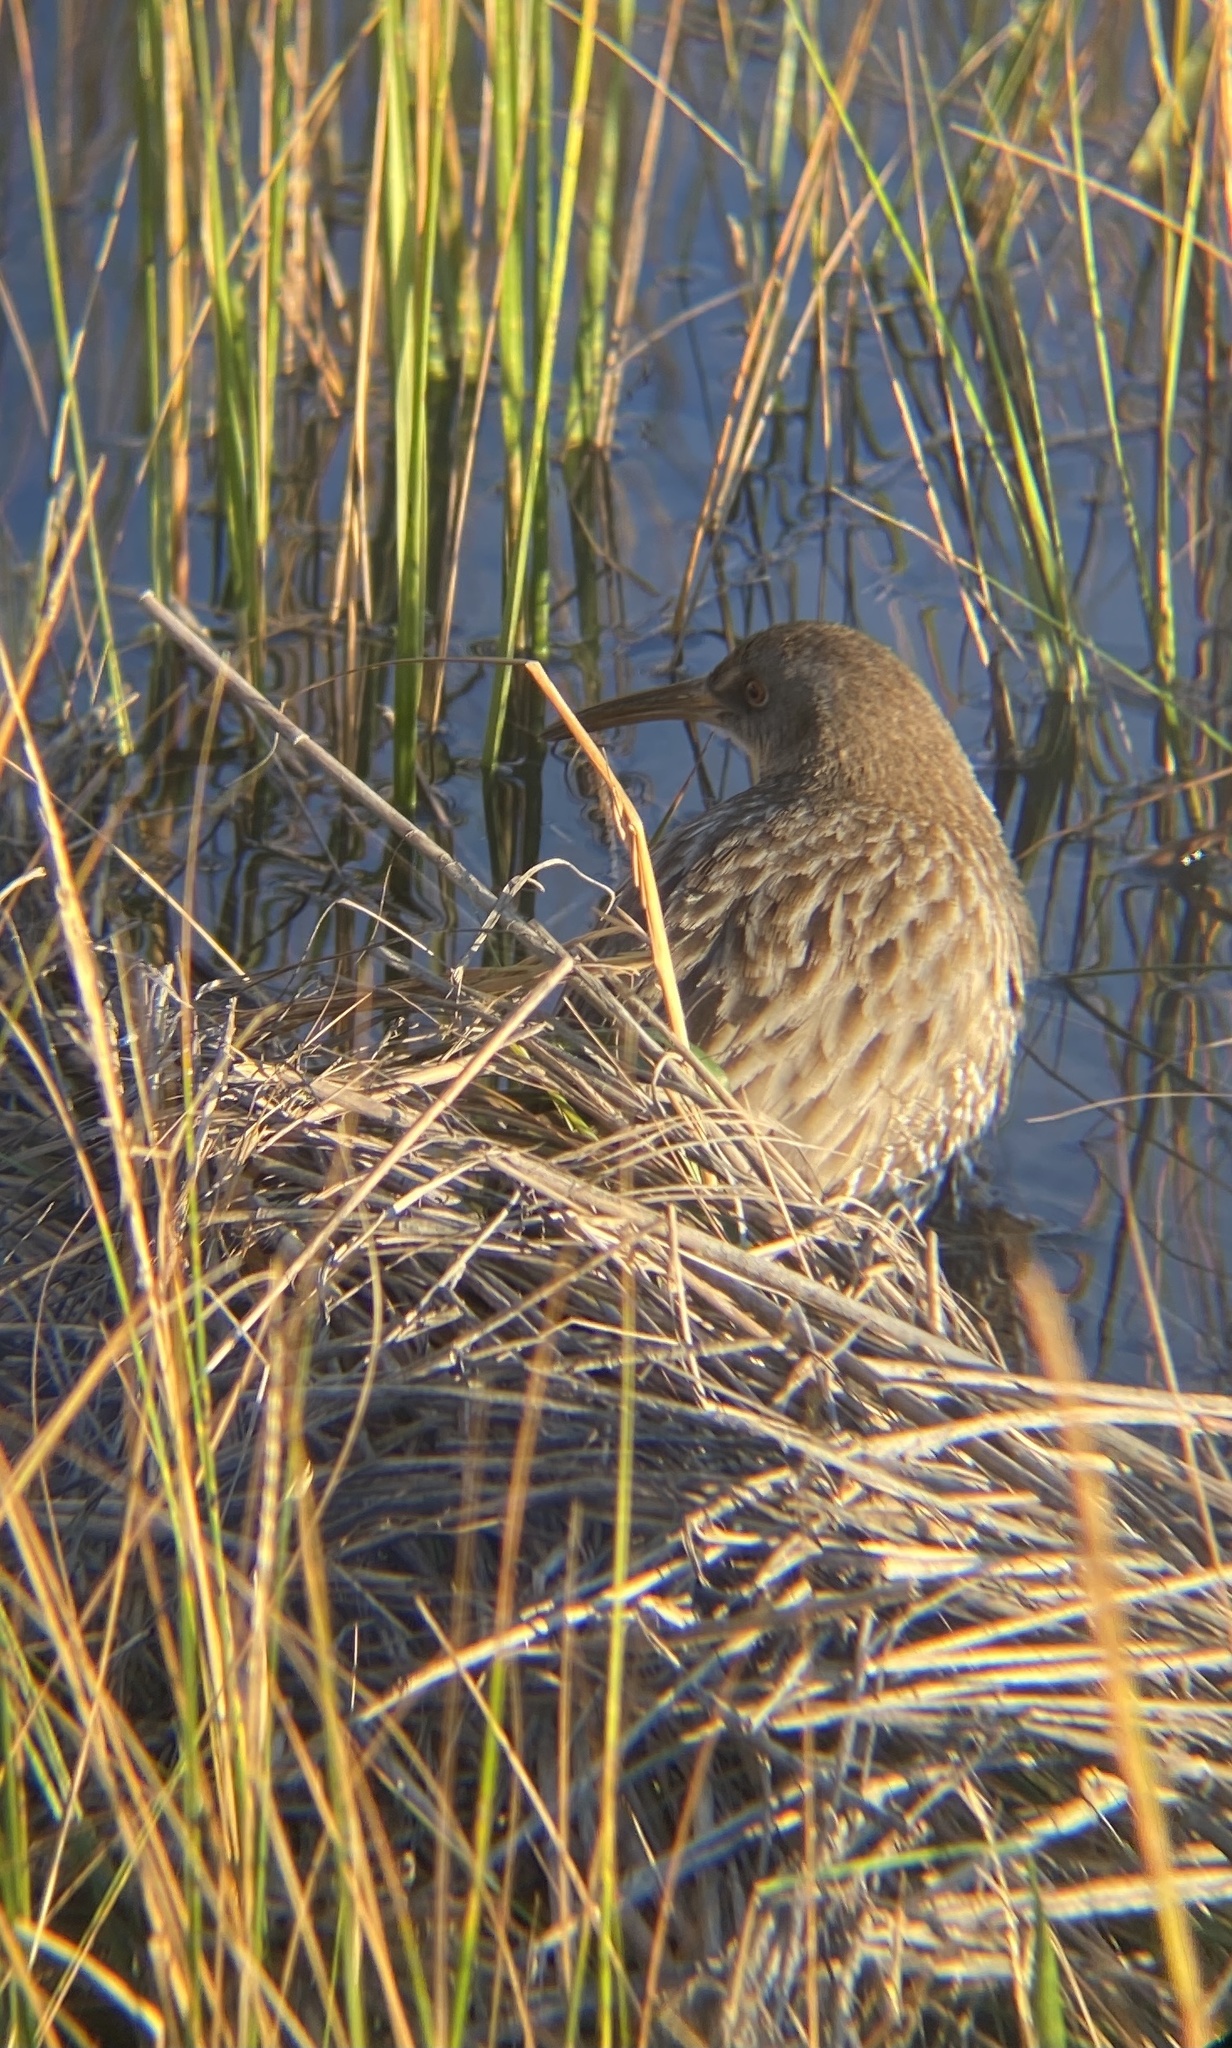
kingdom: Animalia
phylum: Chordata
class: Aves
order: Gruiformes
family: Rallidae
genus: Rallus
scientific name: Rallus crepitans
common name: Clapper rail
